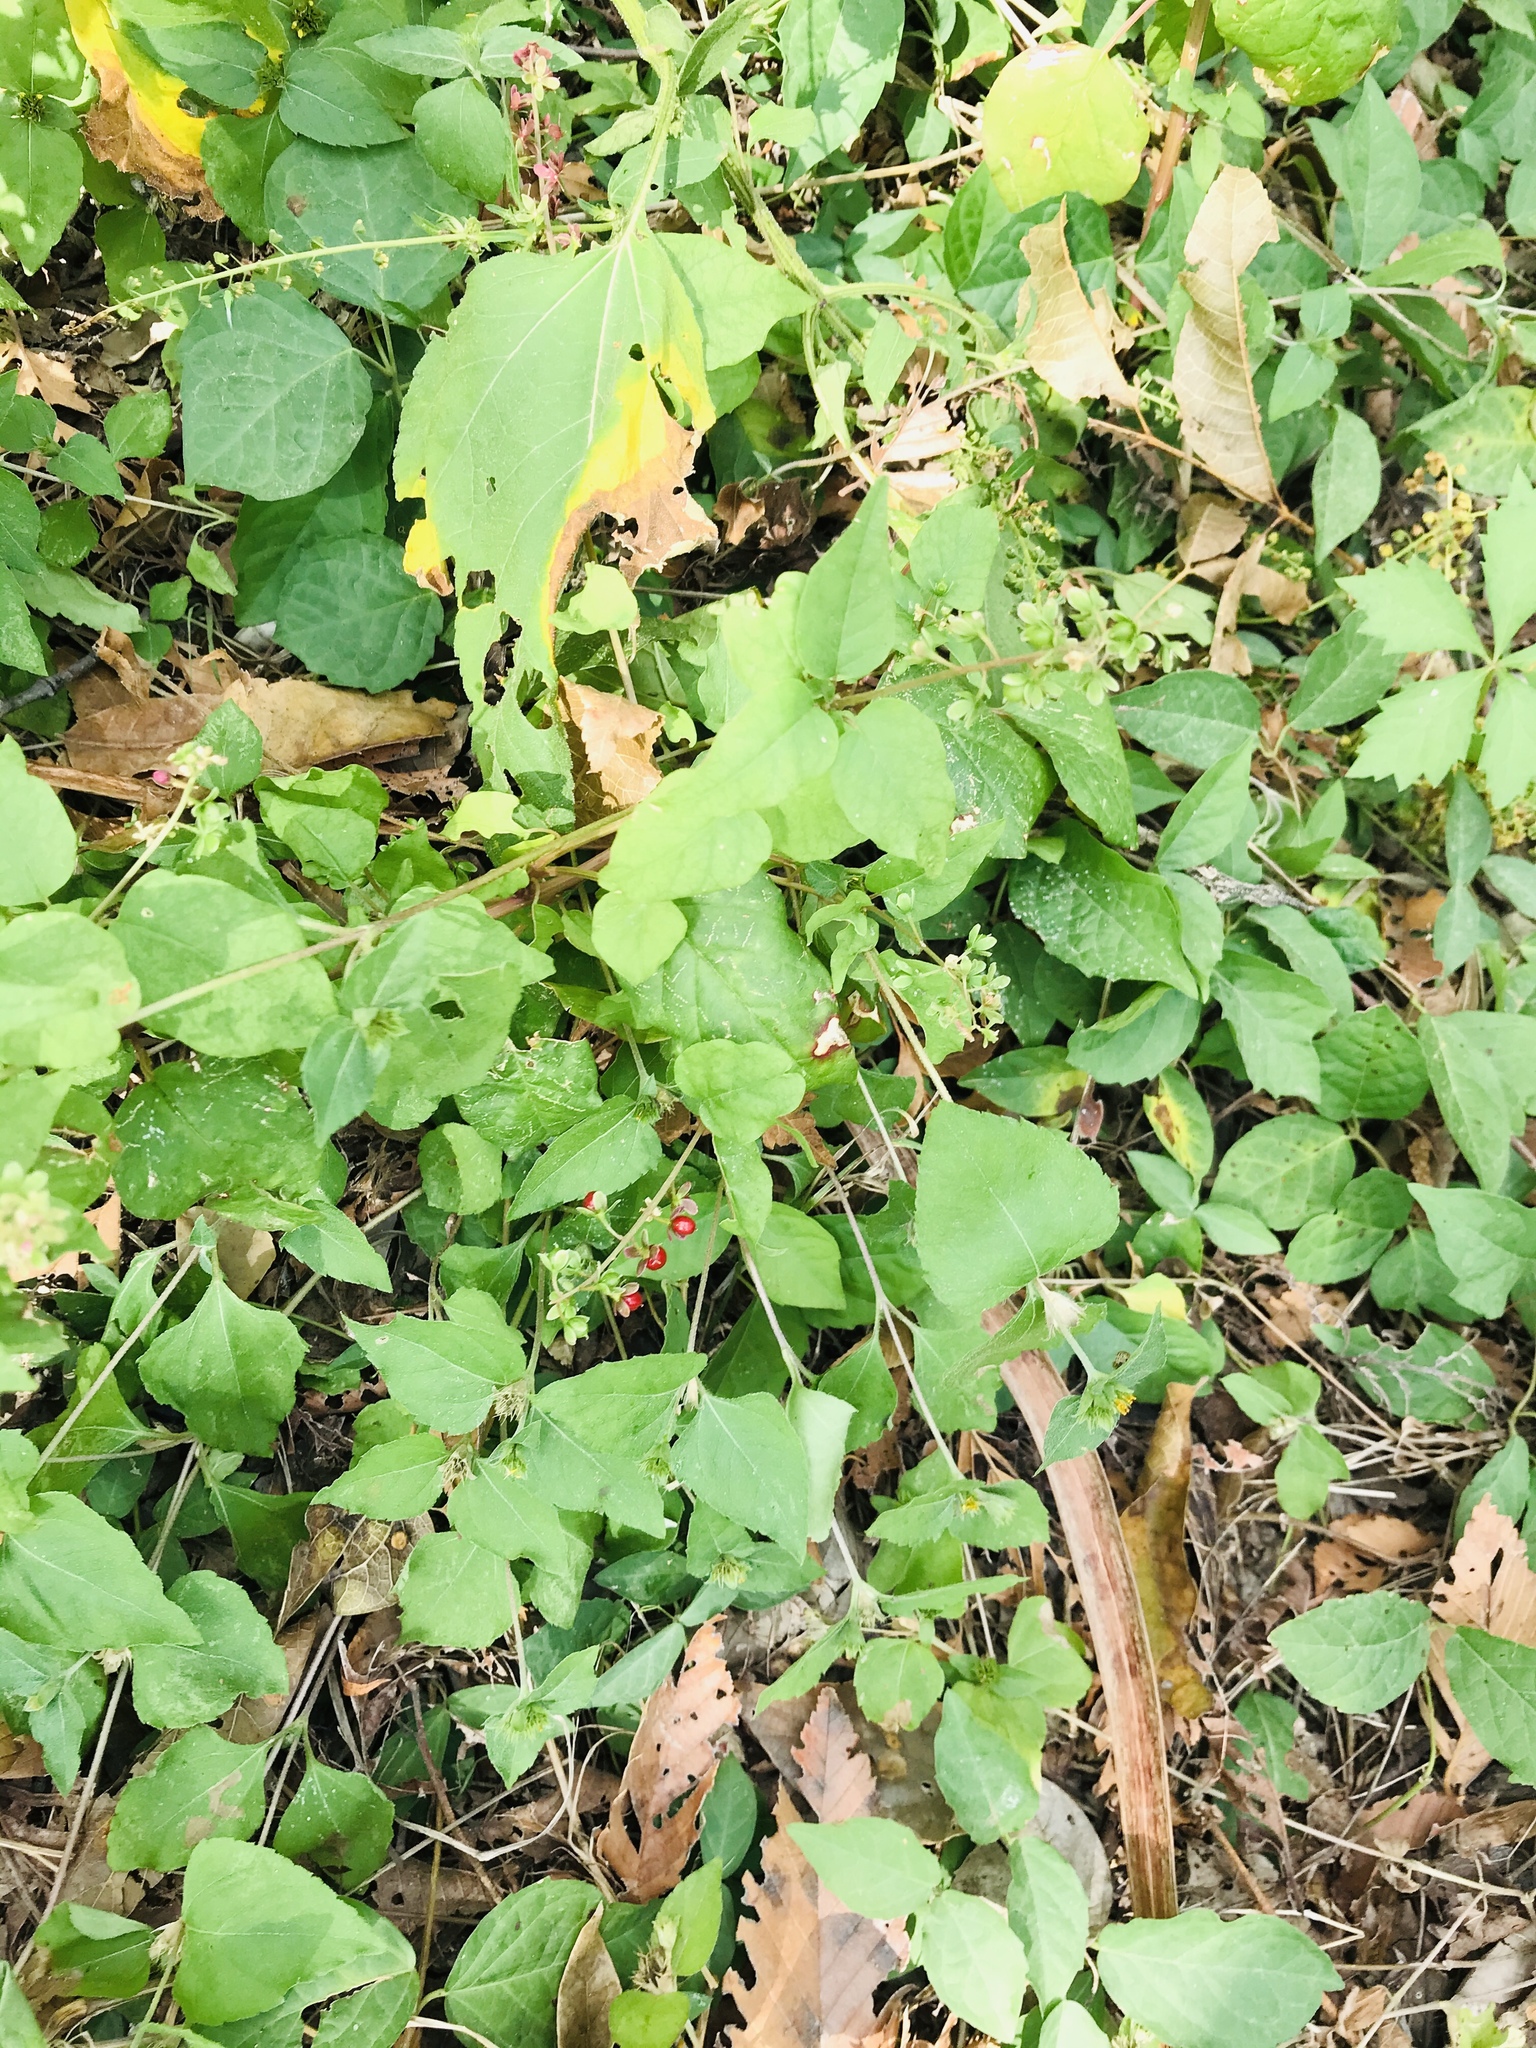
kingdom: Plantae
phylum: Tracheophyta
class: Magnoliopsida
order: Caryophyllales
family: Phytolaccaceae
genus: Rivina
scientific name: Rivina humilis
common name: Rougeplant
